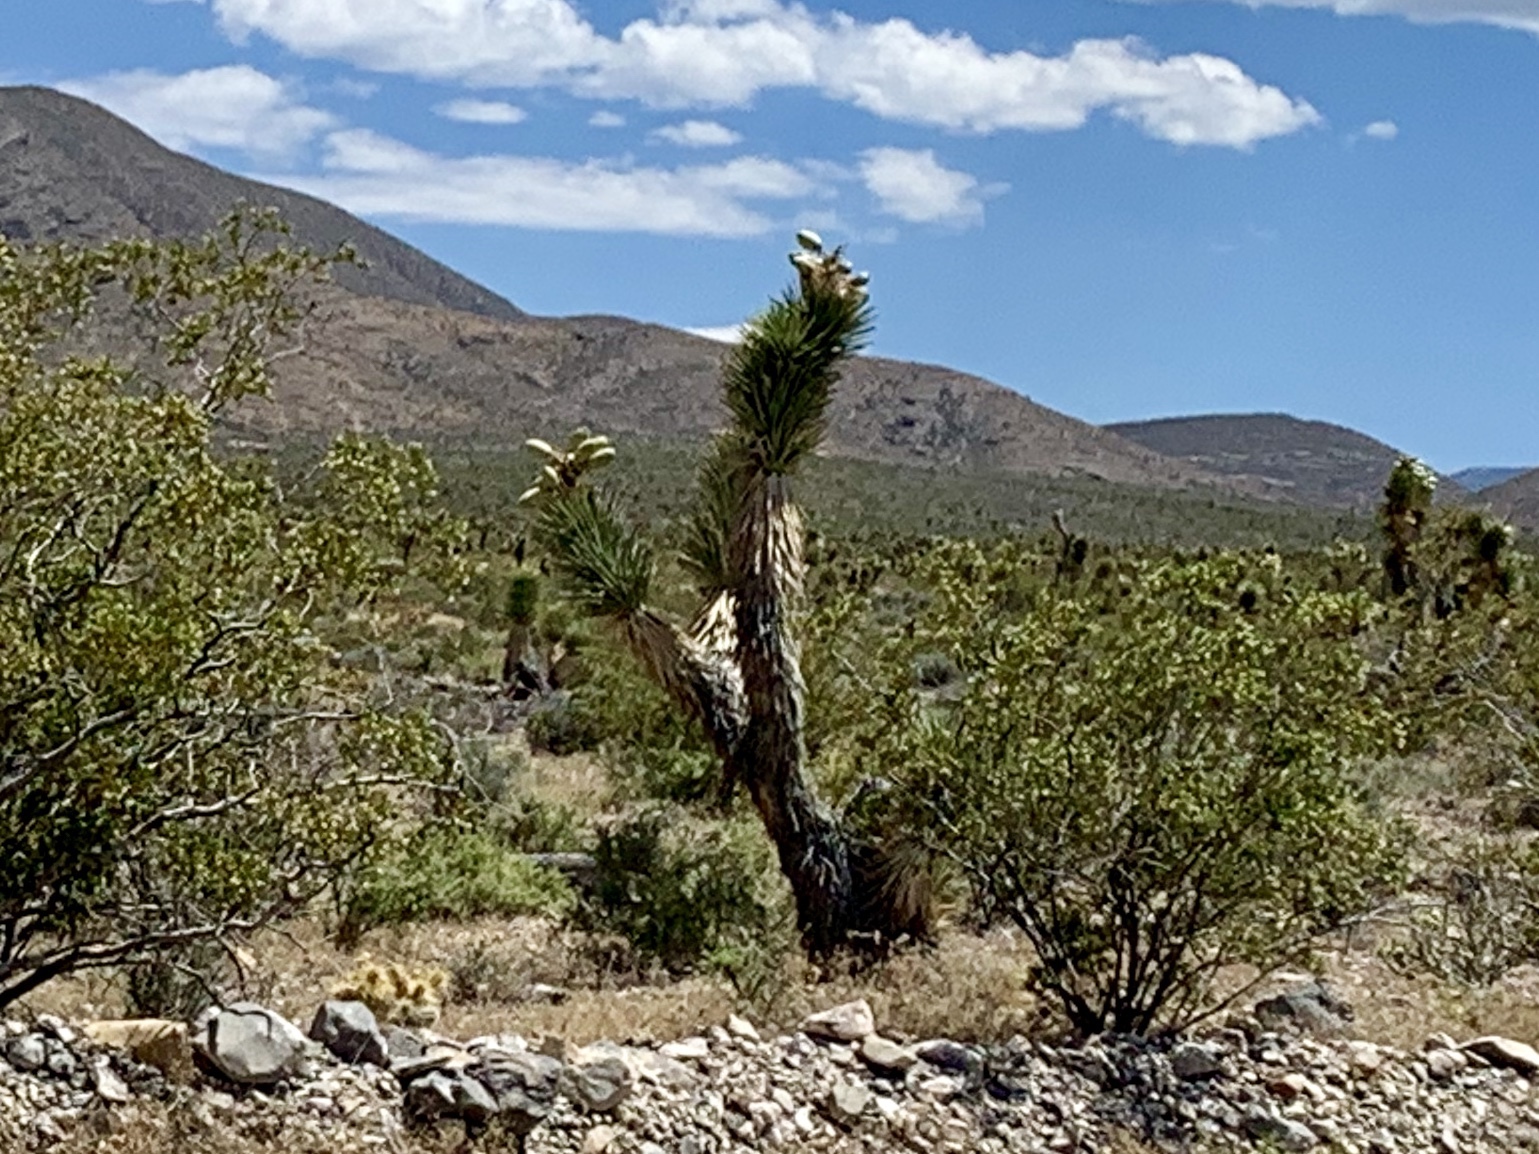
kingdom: Plantae
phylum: Tracheophyta
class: Liliopsida
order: Asparagales
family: Asparagaceae
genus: Yucca
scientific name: Yucca brevifolia
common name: Joshua tree
